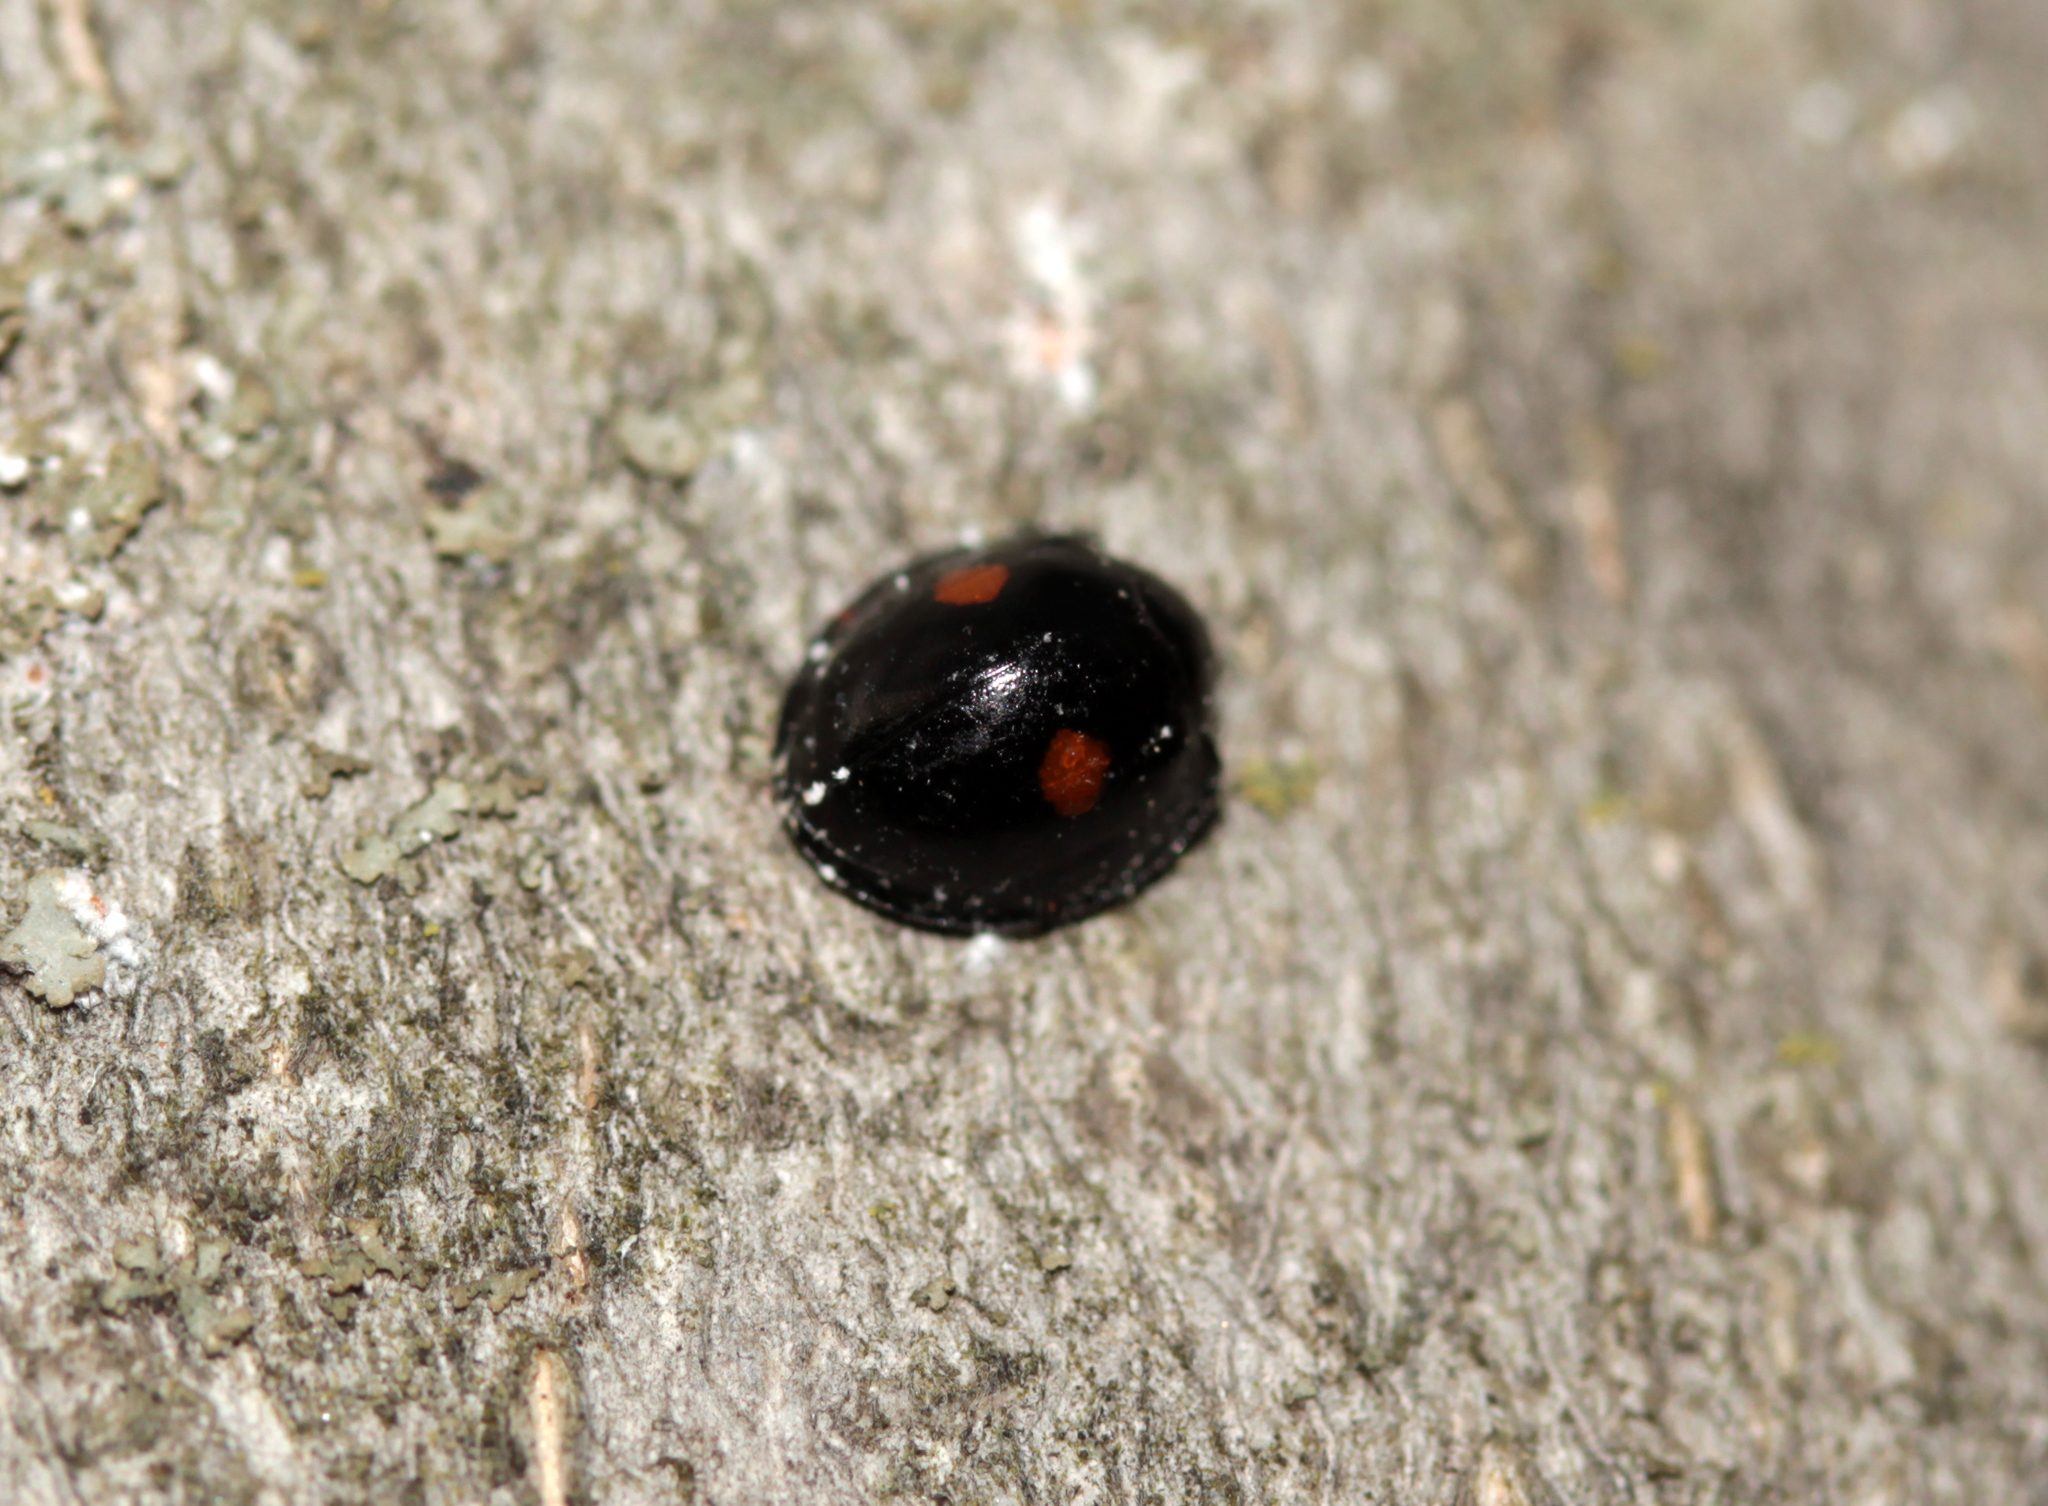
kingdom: Animalia
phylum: Arthropoda
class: Insecta
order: Coleoptera
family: Coccinellidae
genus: Chilocorus
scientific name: Chilocorus stigma
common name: Twicestabbed lady beetle
